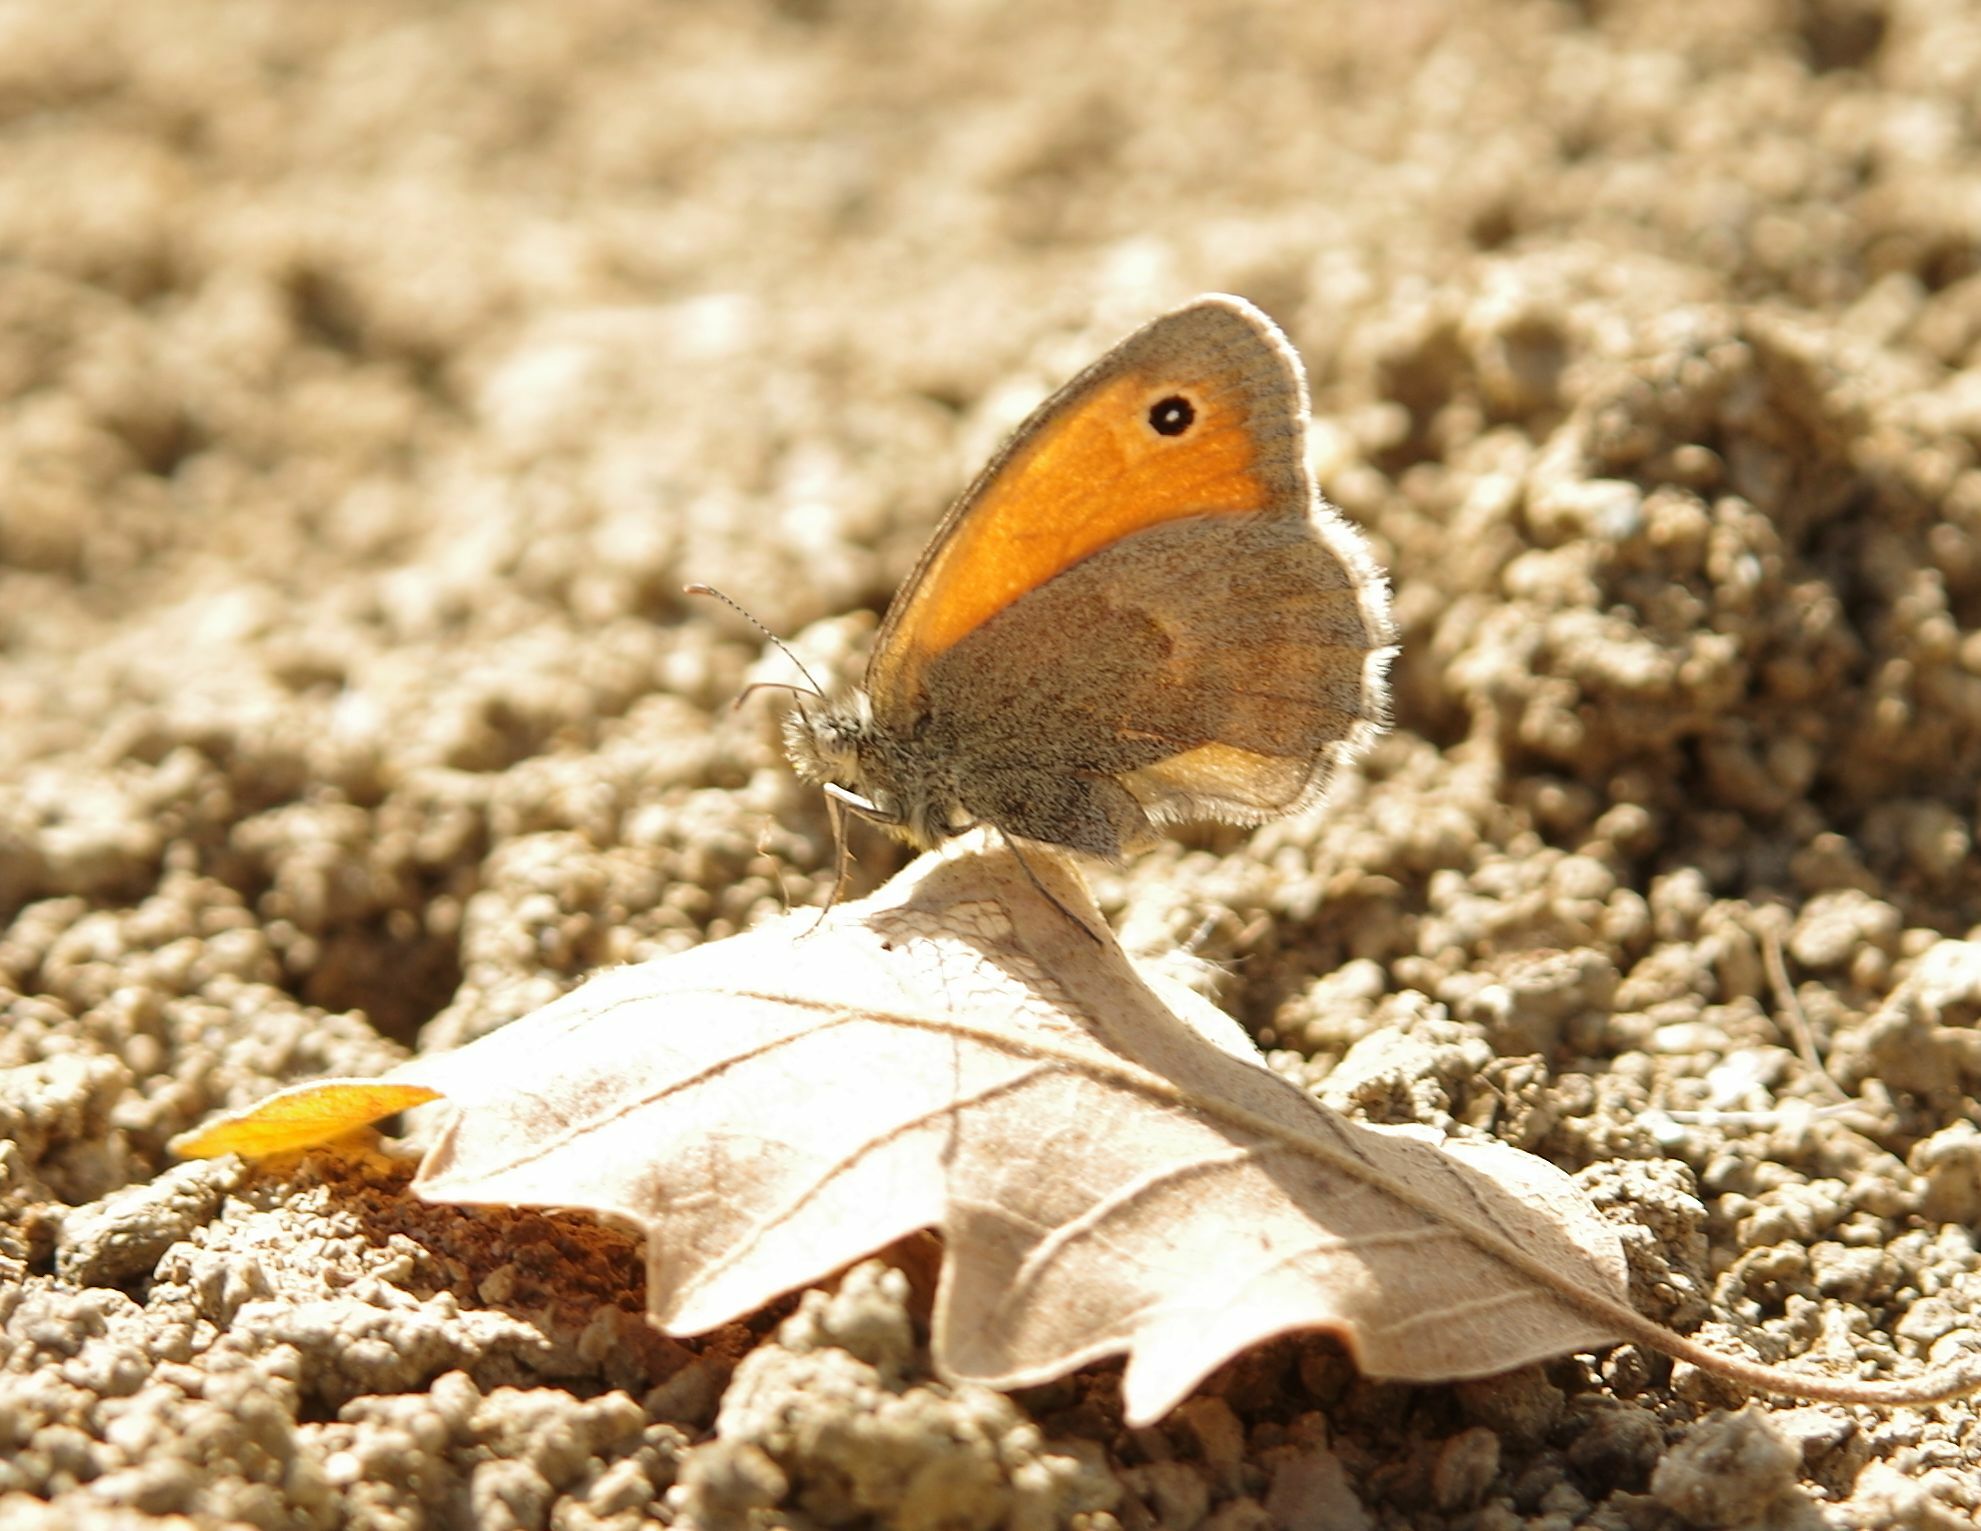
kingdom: Animalia
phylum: Arthropoda
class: Insecta
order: Lepidoptera
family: Nymphalidae
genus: Coenonympha
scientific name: Coenonympha pamphilus
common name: Small heath
